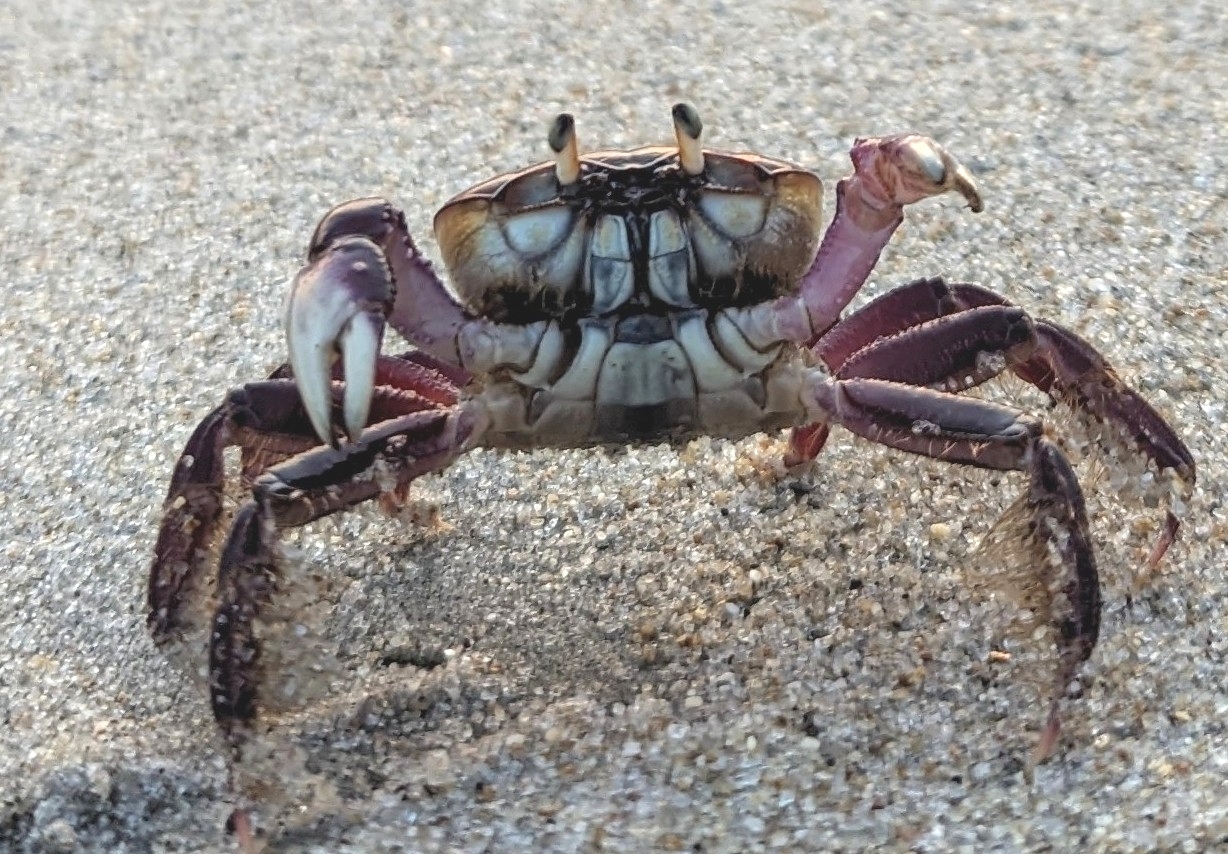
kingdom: Animalia
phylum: Arthropoda
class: Malacostraca
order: Decapoda
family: Ocypodidae
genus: Ucides
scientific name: Ucides cordatus
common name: Swamp ghost crab
